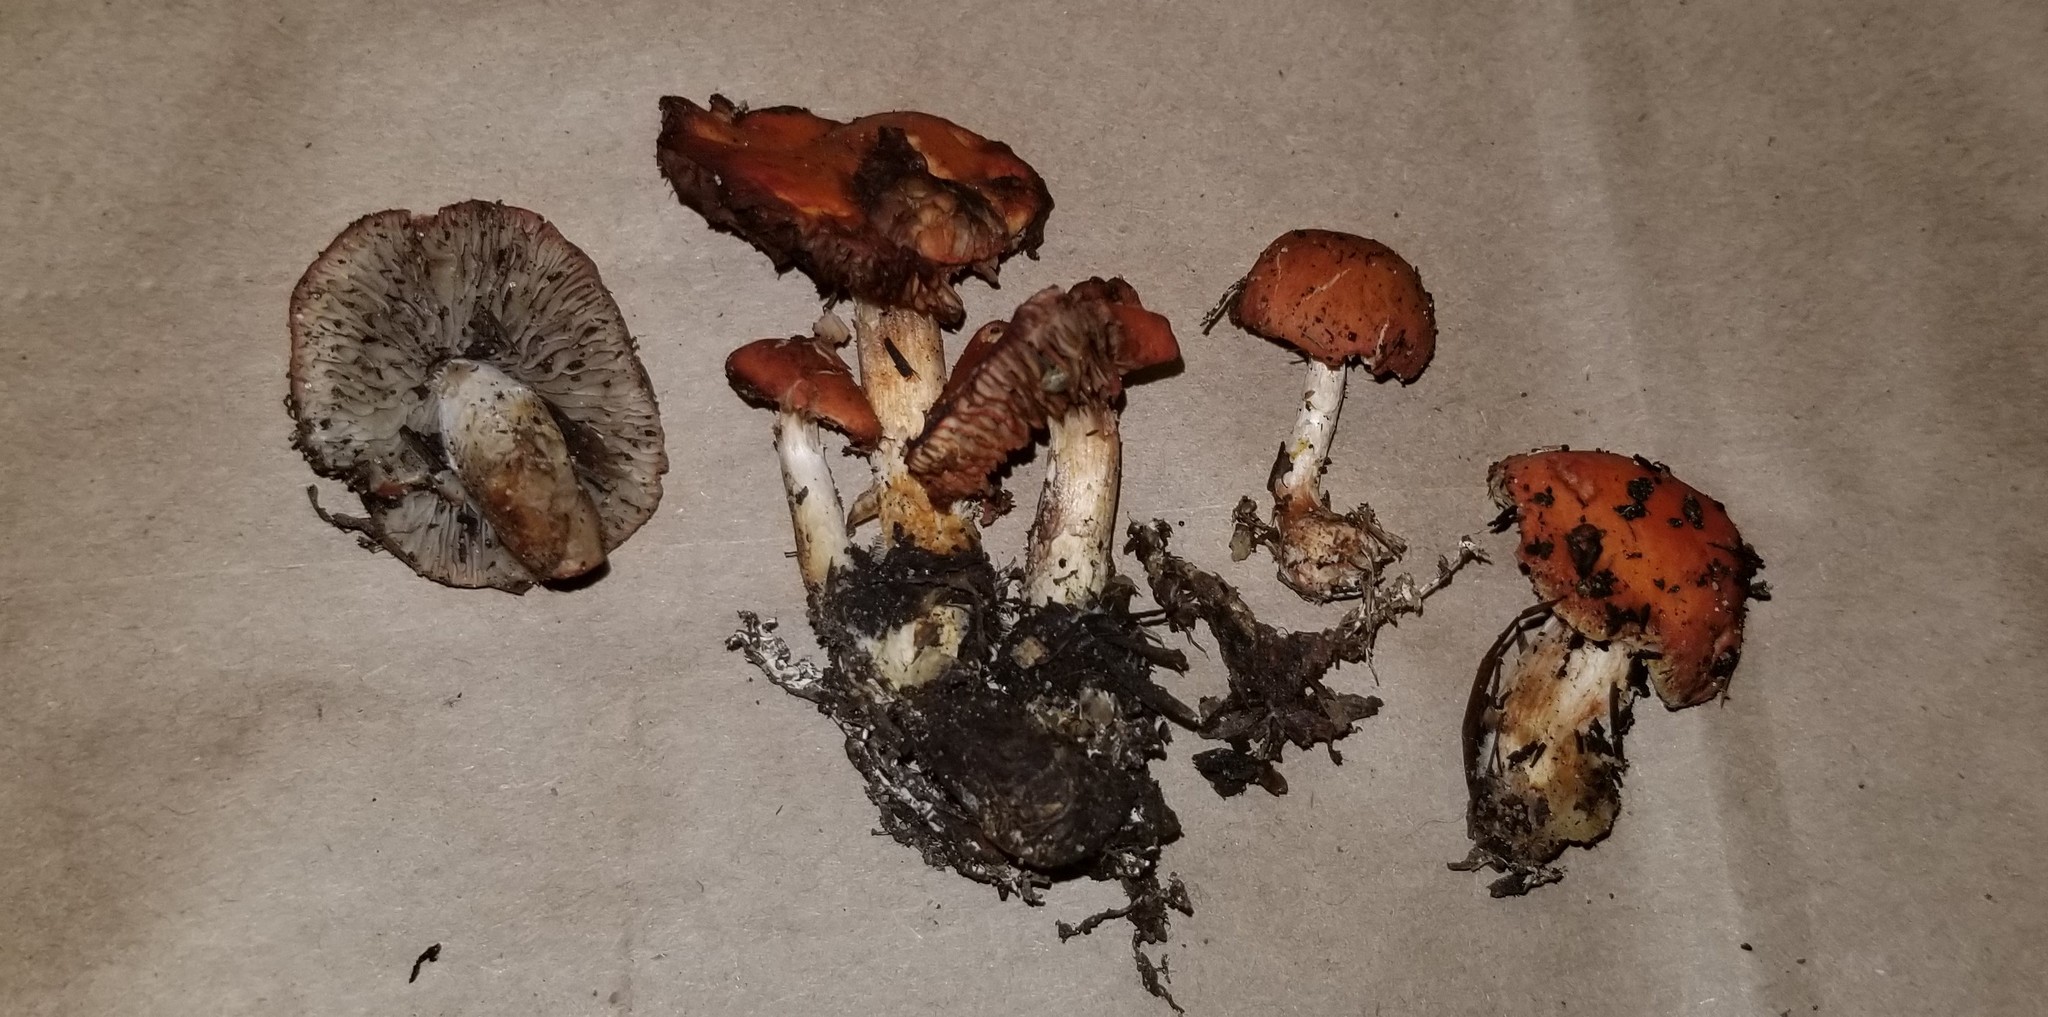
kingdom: Fungi
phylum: Basidiomycota
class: Agaricomycetes
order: Agaricales
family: Strophariaceae
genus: Leratiomyces
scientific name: Leratiomyces ceres
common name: Redlead roundhead
